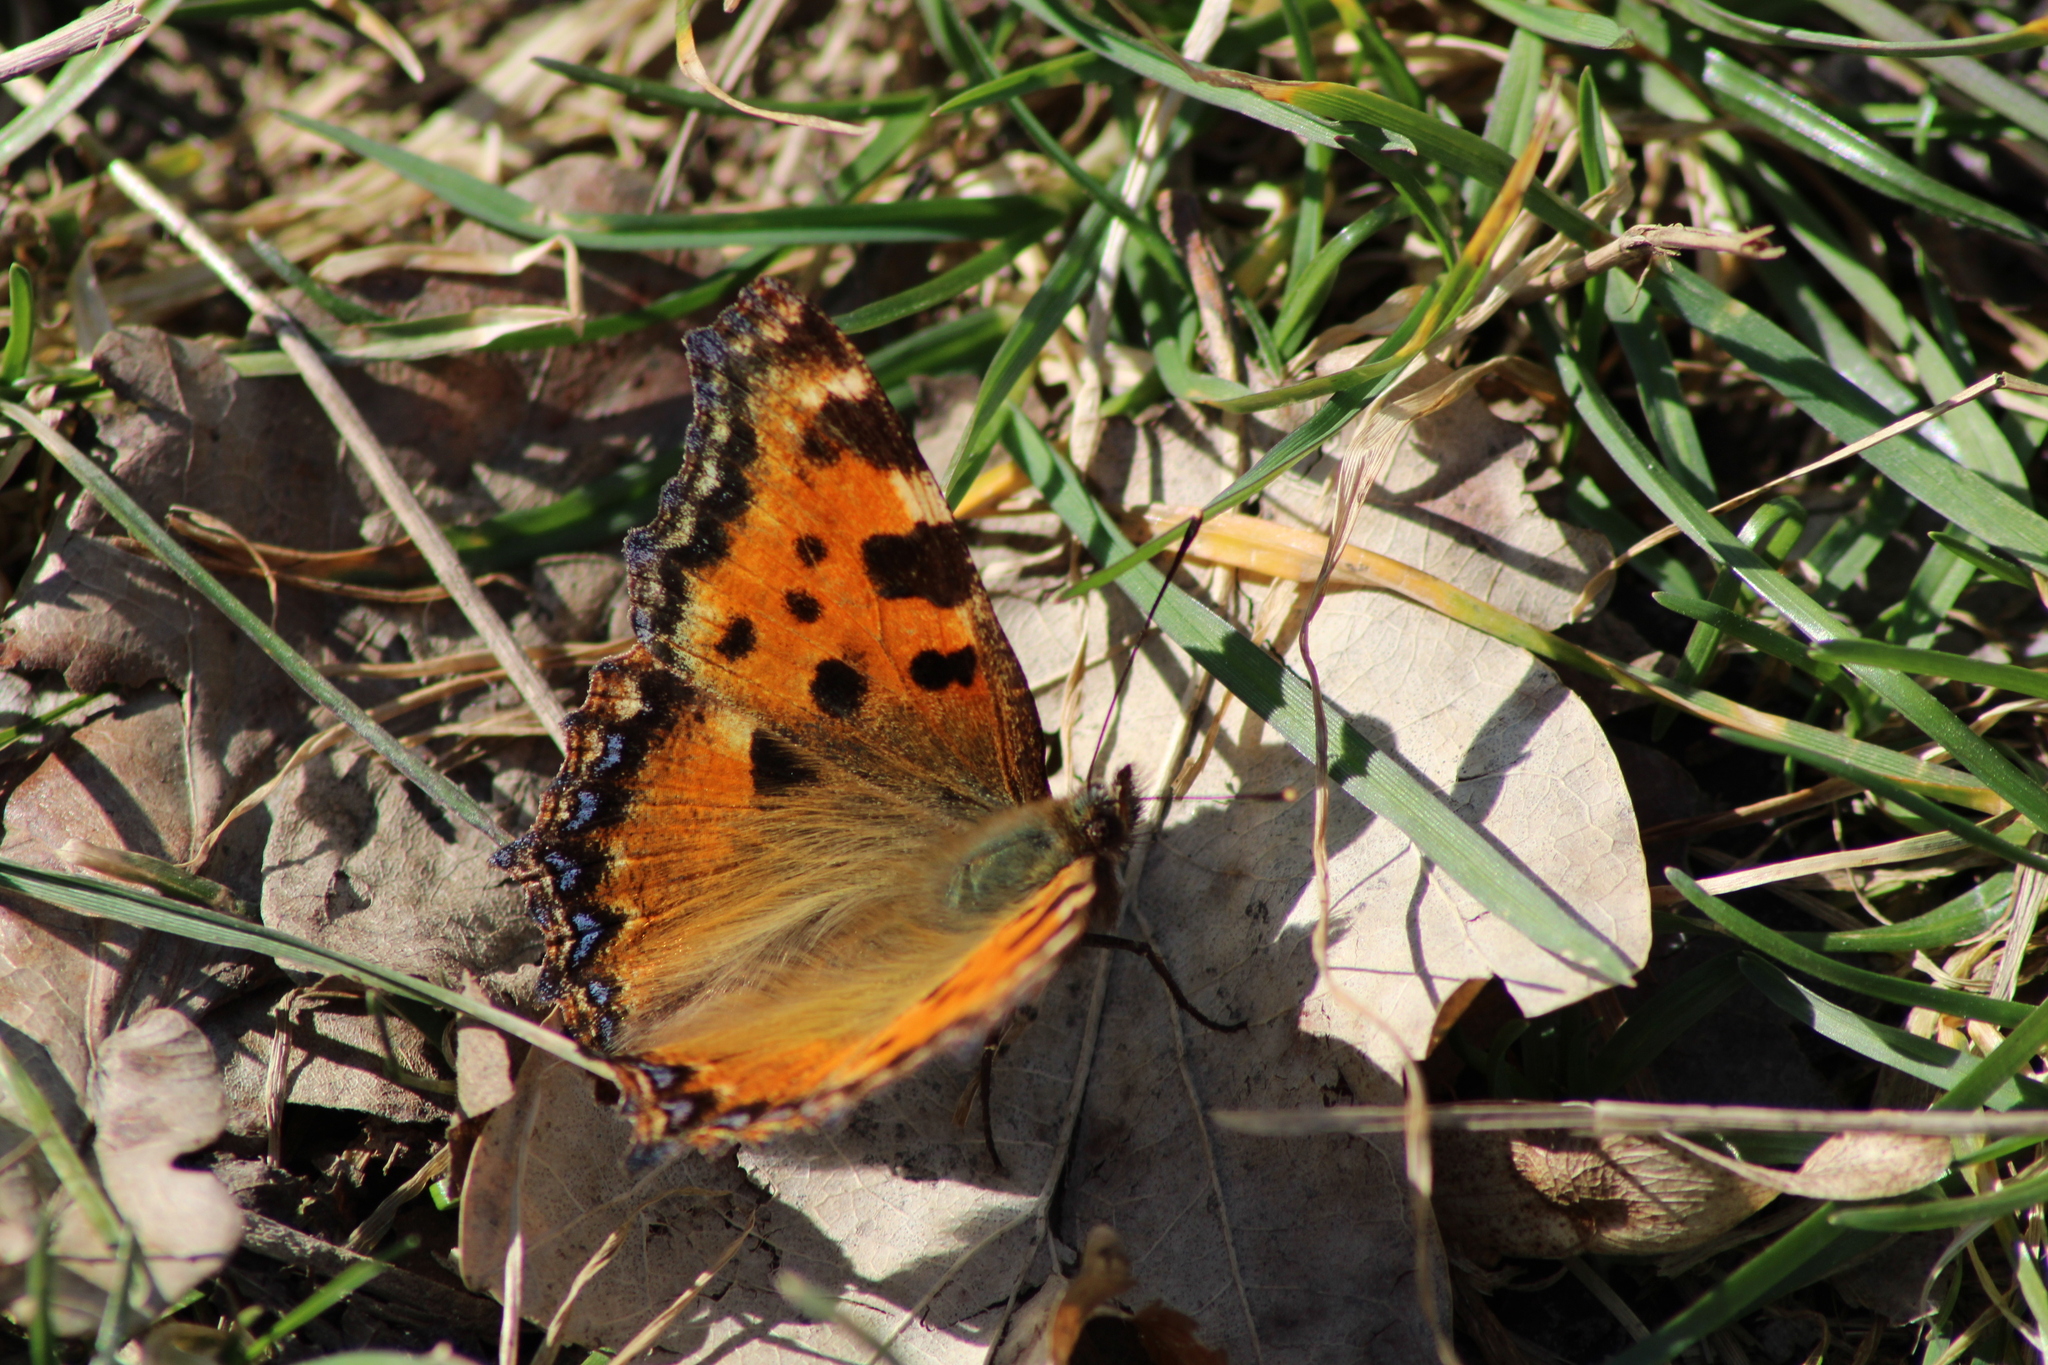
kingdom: Animalia
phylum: Arthropoda
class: Insecta
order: Lepidoptera
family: Nymphalidae
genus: Nymphalis
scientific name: Nymphalis polychloros
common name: Large tortoiseshell
